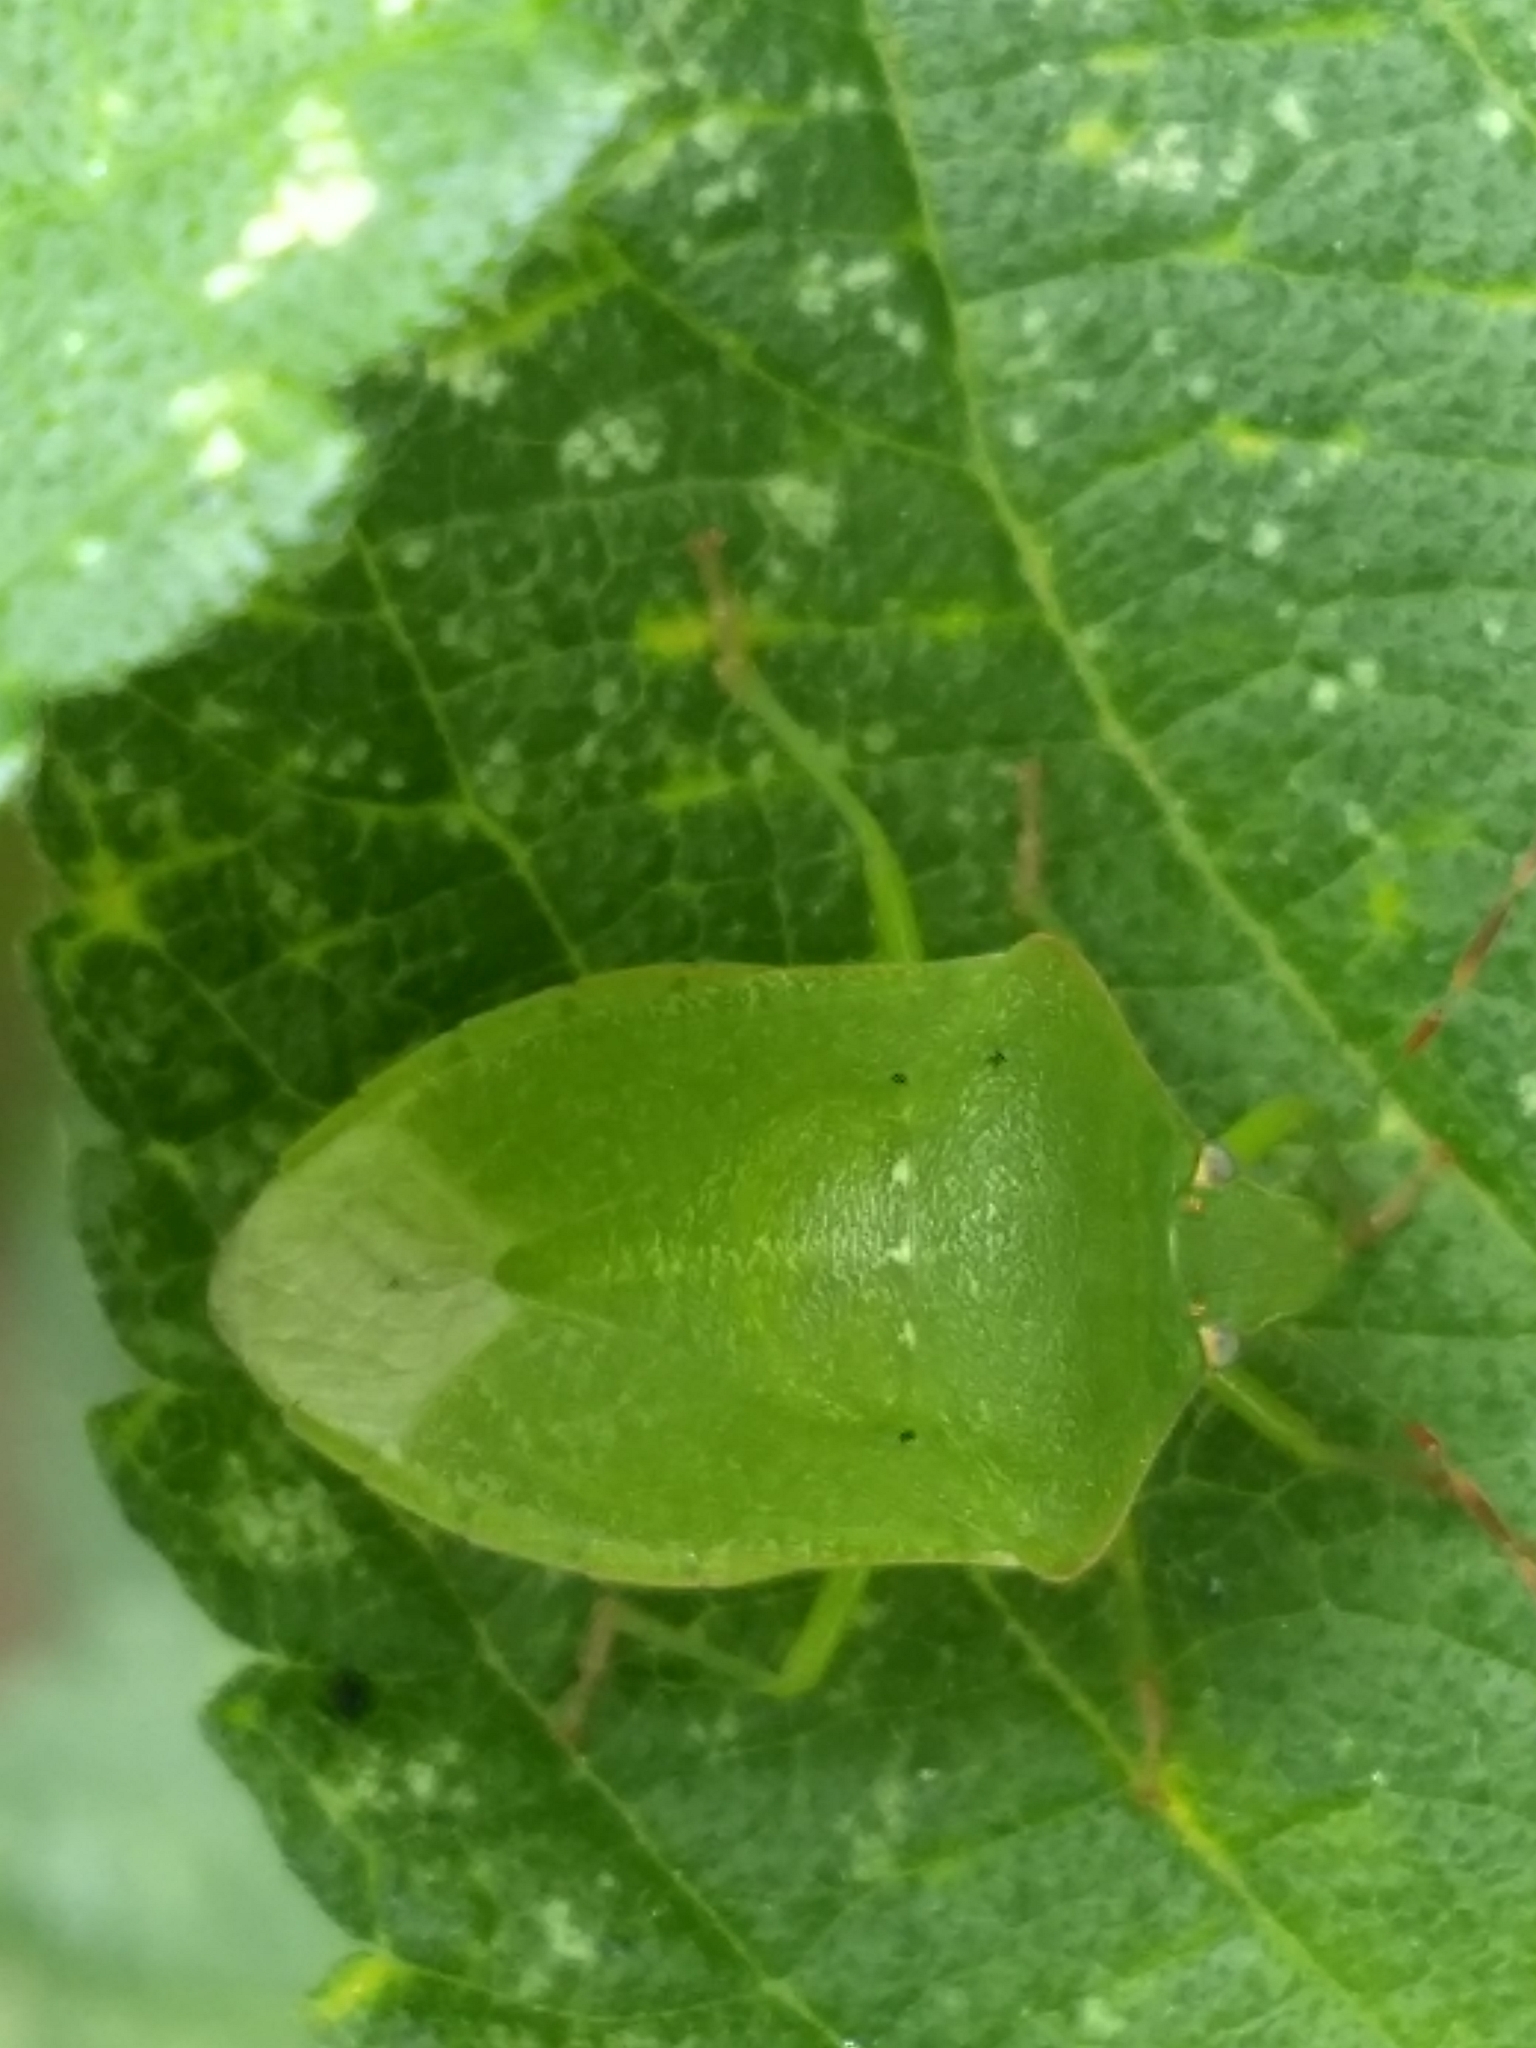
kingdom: Animalia
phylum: Arthropoda
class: Insecta
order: Hemiptera
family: Pentatomidae
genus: Nezara
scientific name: Nezara viridula
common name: Southern green stink bug
